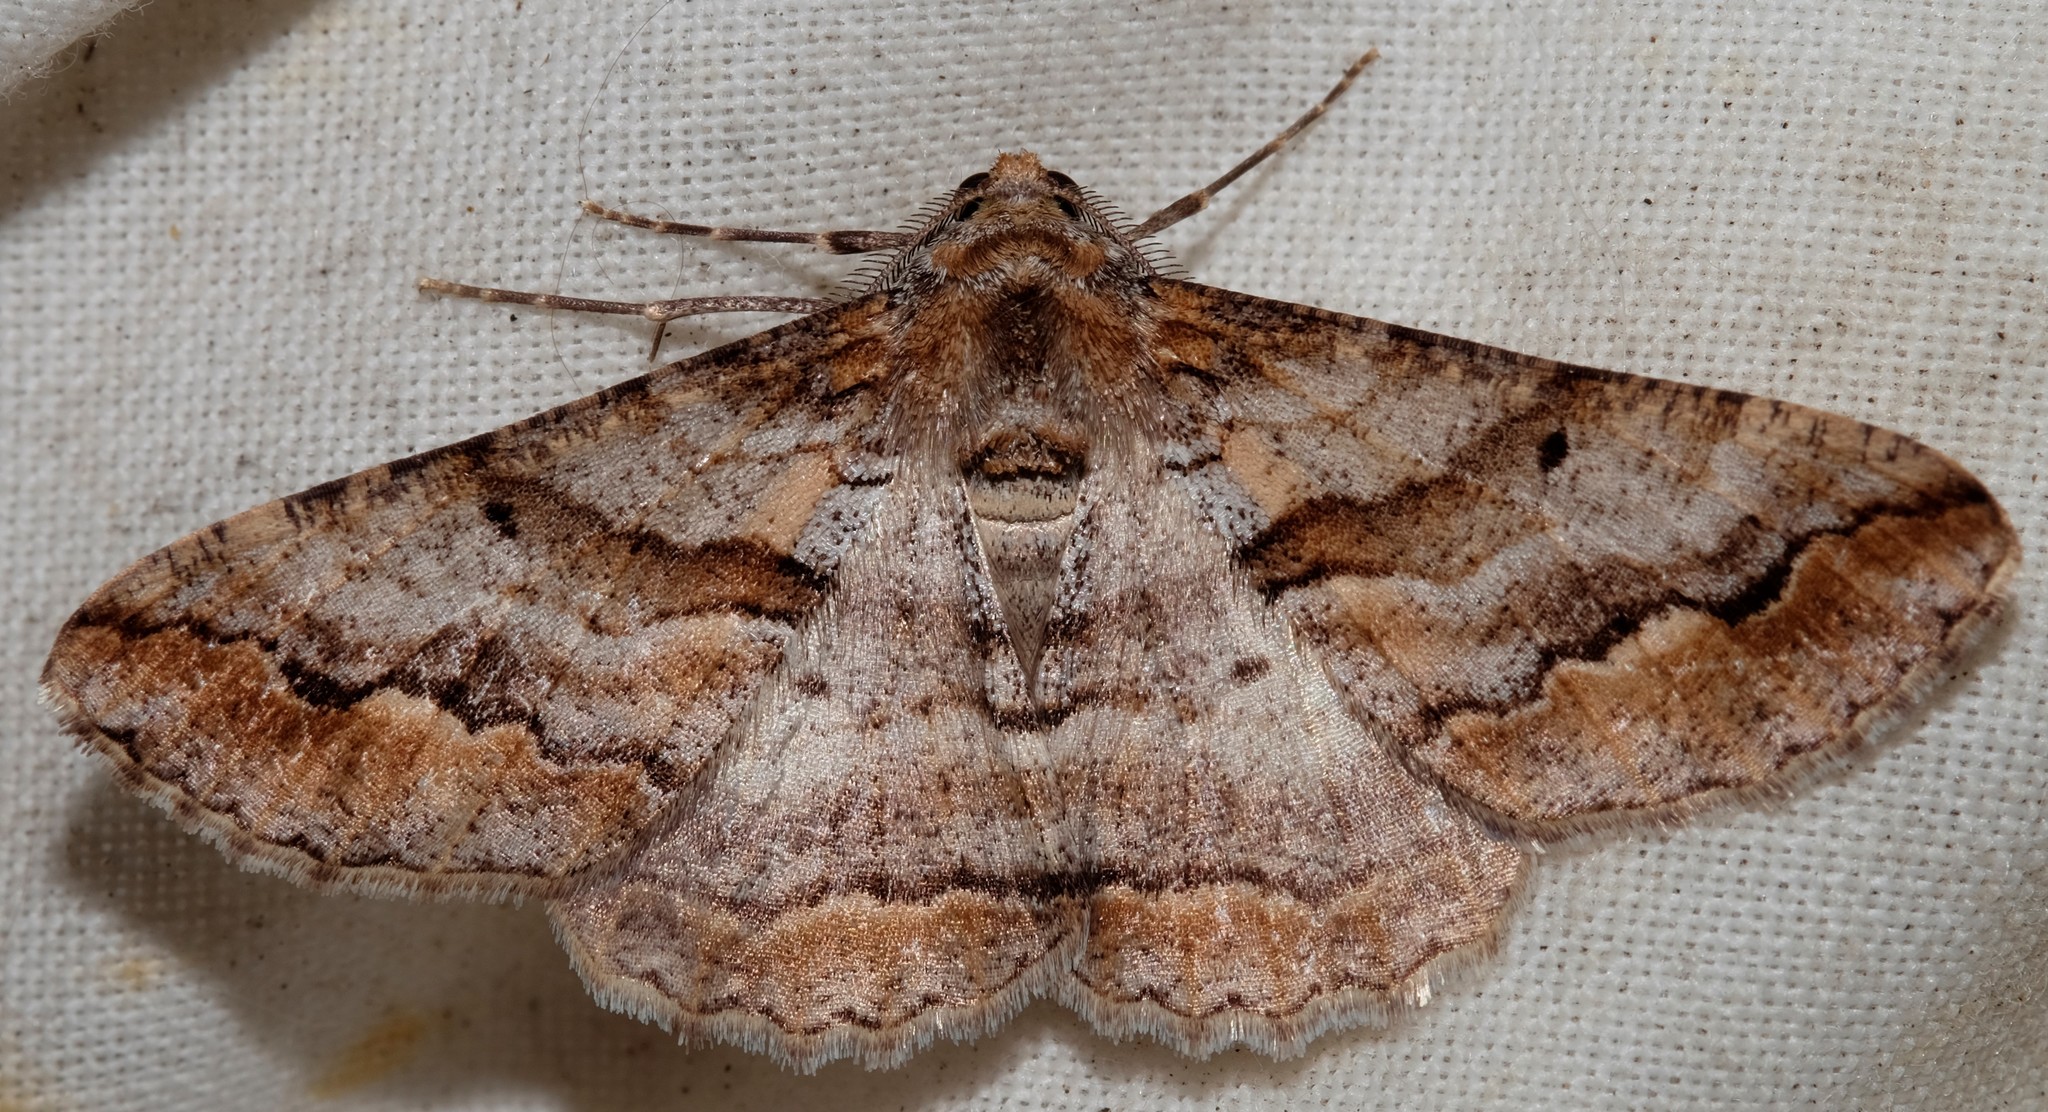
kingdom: Animalia
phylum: Arthropoda
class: Insecta
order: Lepidoptera
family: Geometridae
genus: Gastrinodes
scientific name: Gastrinodes bitaeniaria
